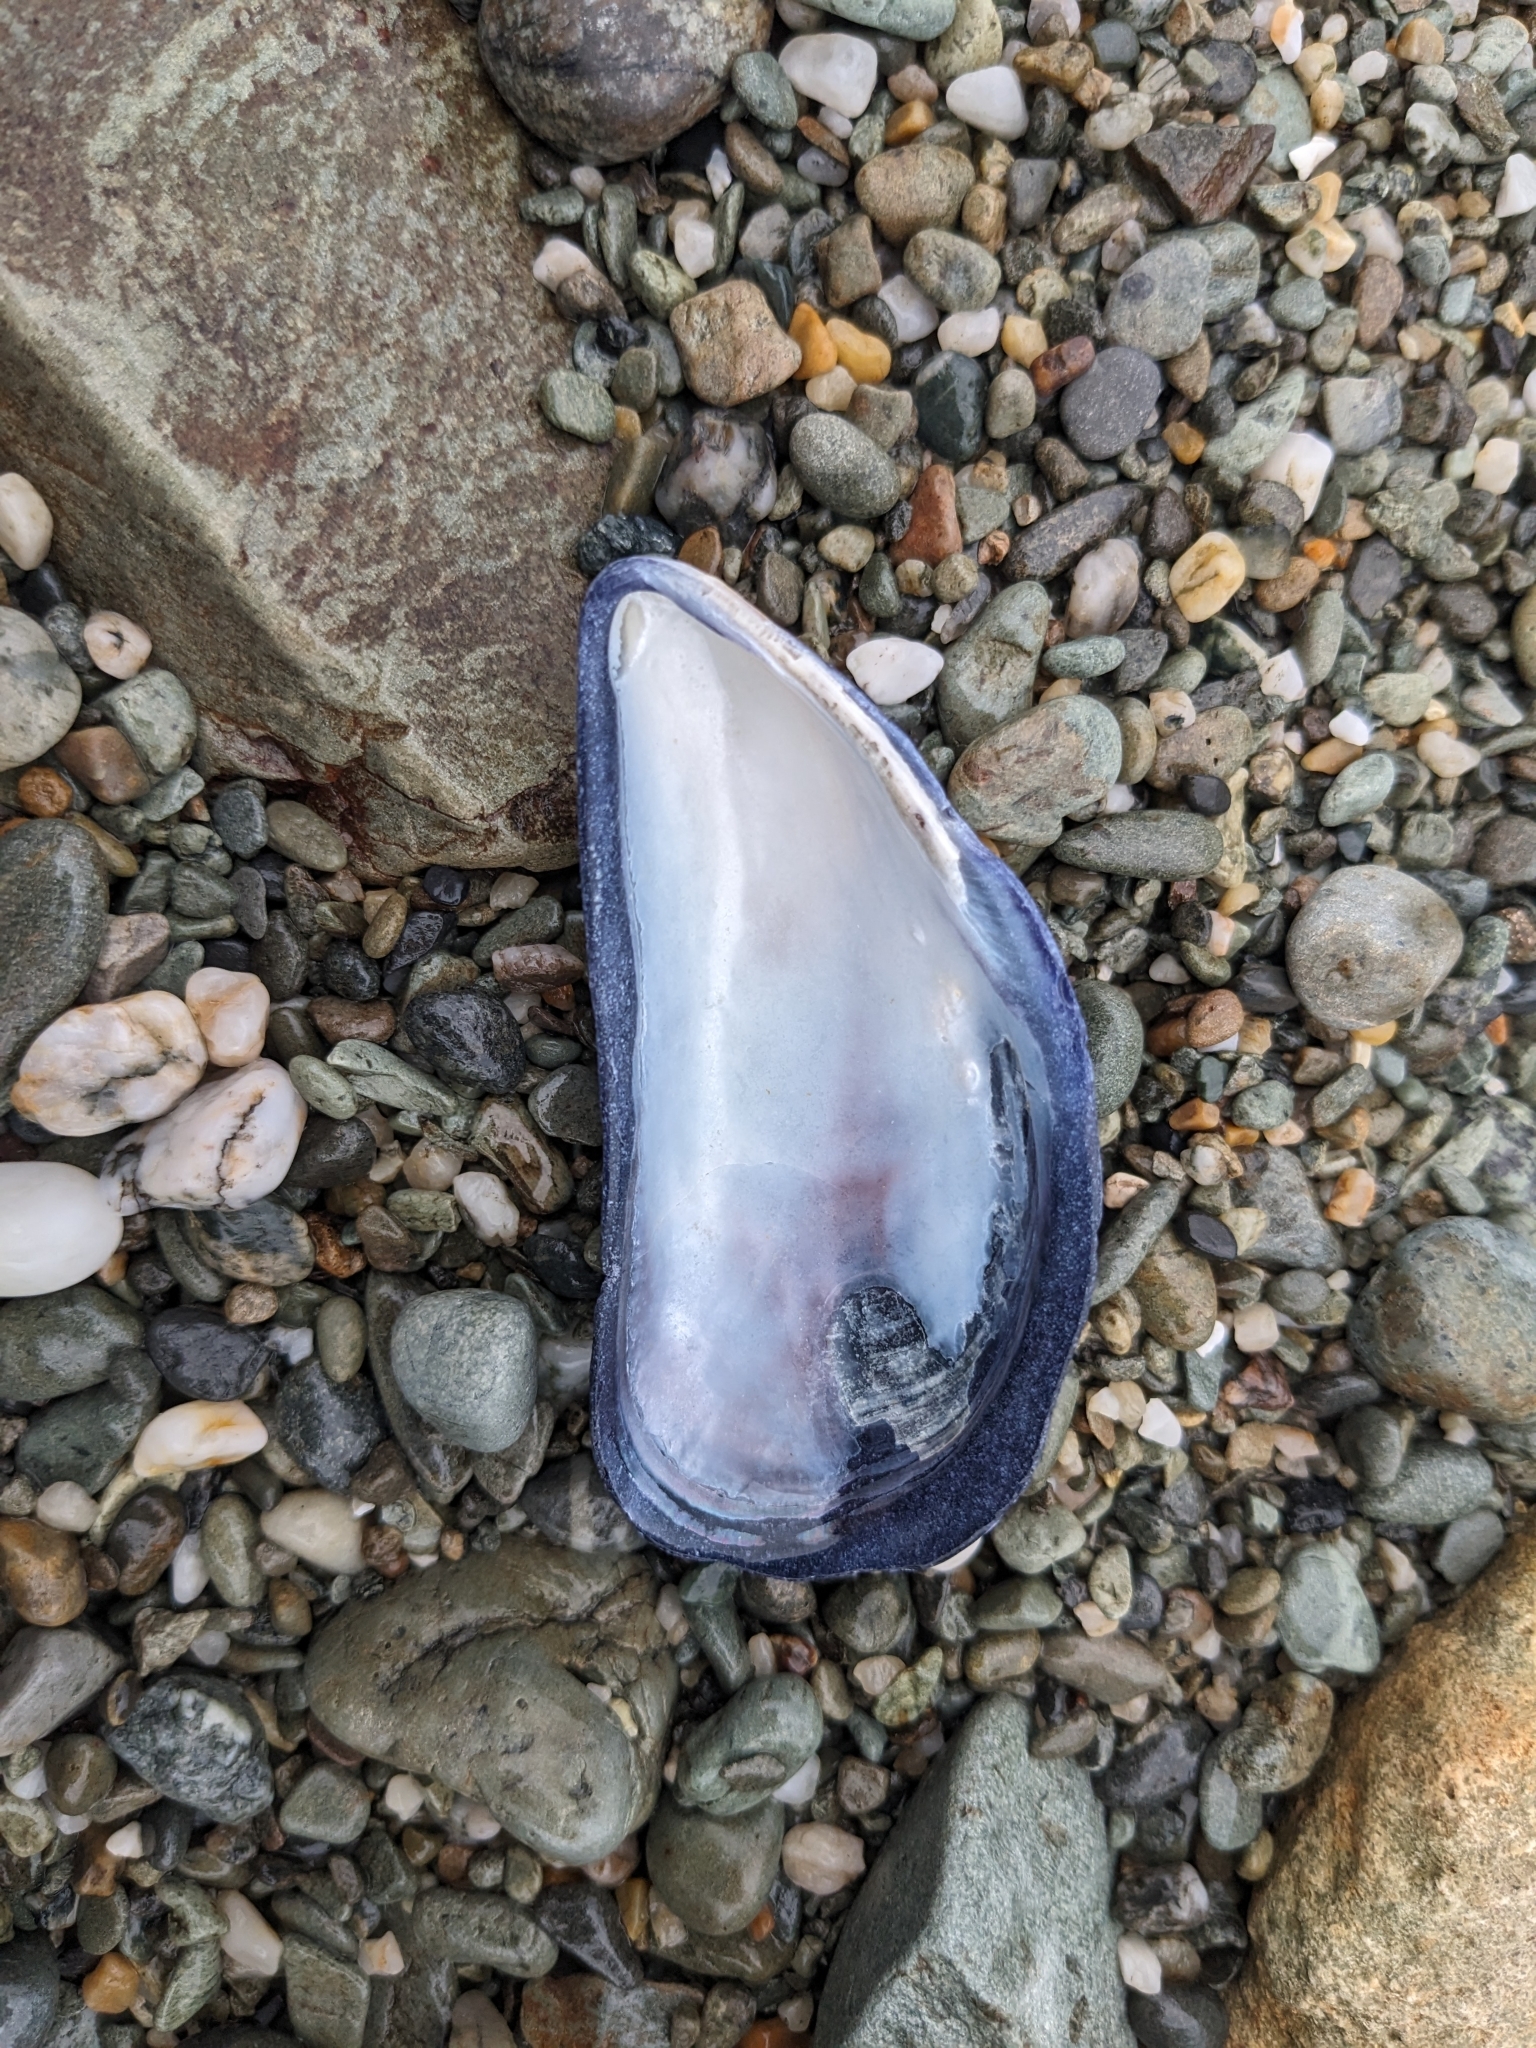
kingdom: Animalia
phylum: Mollusca
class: Bivalvia
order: Mytilida
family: Mytilidae
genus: Mytilus
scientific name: Mytilus
